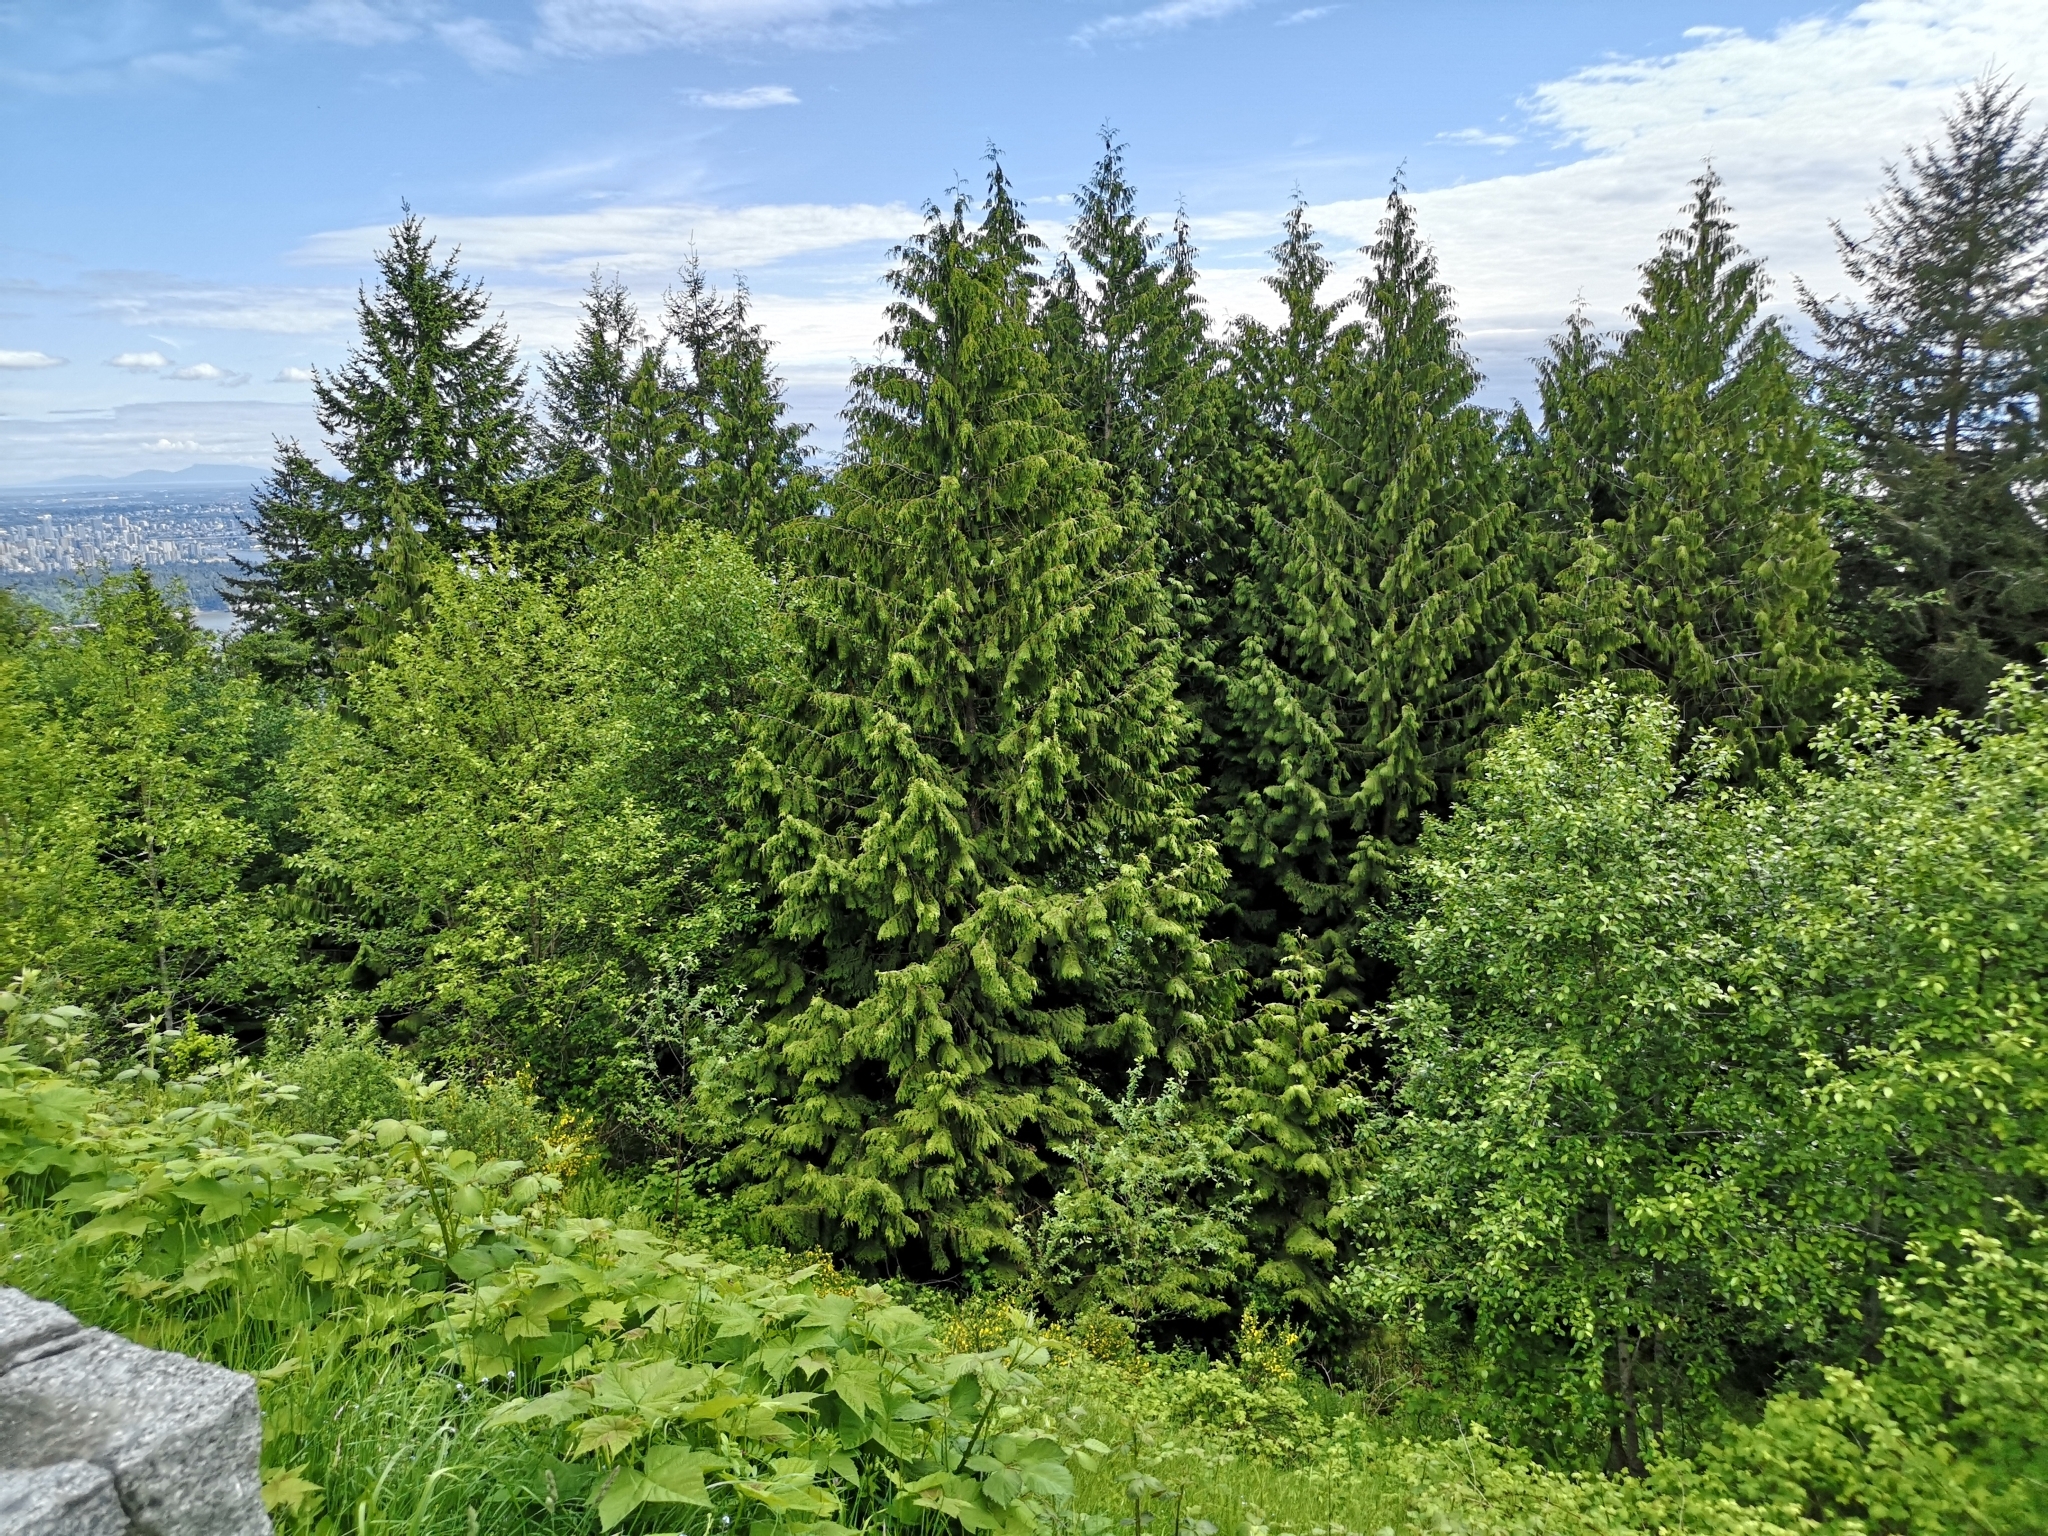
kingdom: Plantae
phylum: Tracheophyta
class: Pinopsida
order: Pinales
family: Cupressaceae
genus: Thuja
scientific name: Thuja plicata
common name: Western red-cedar
